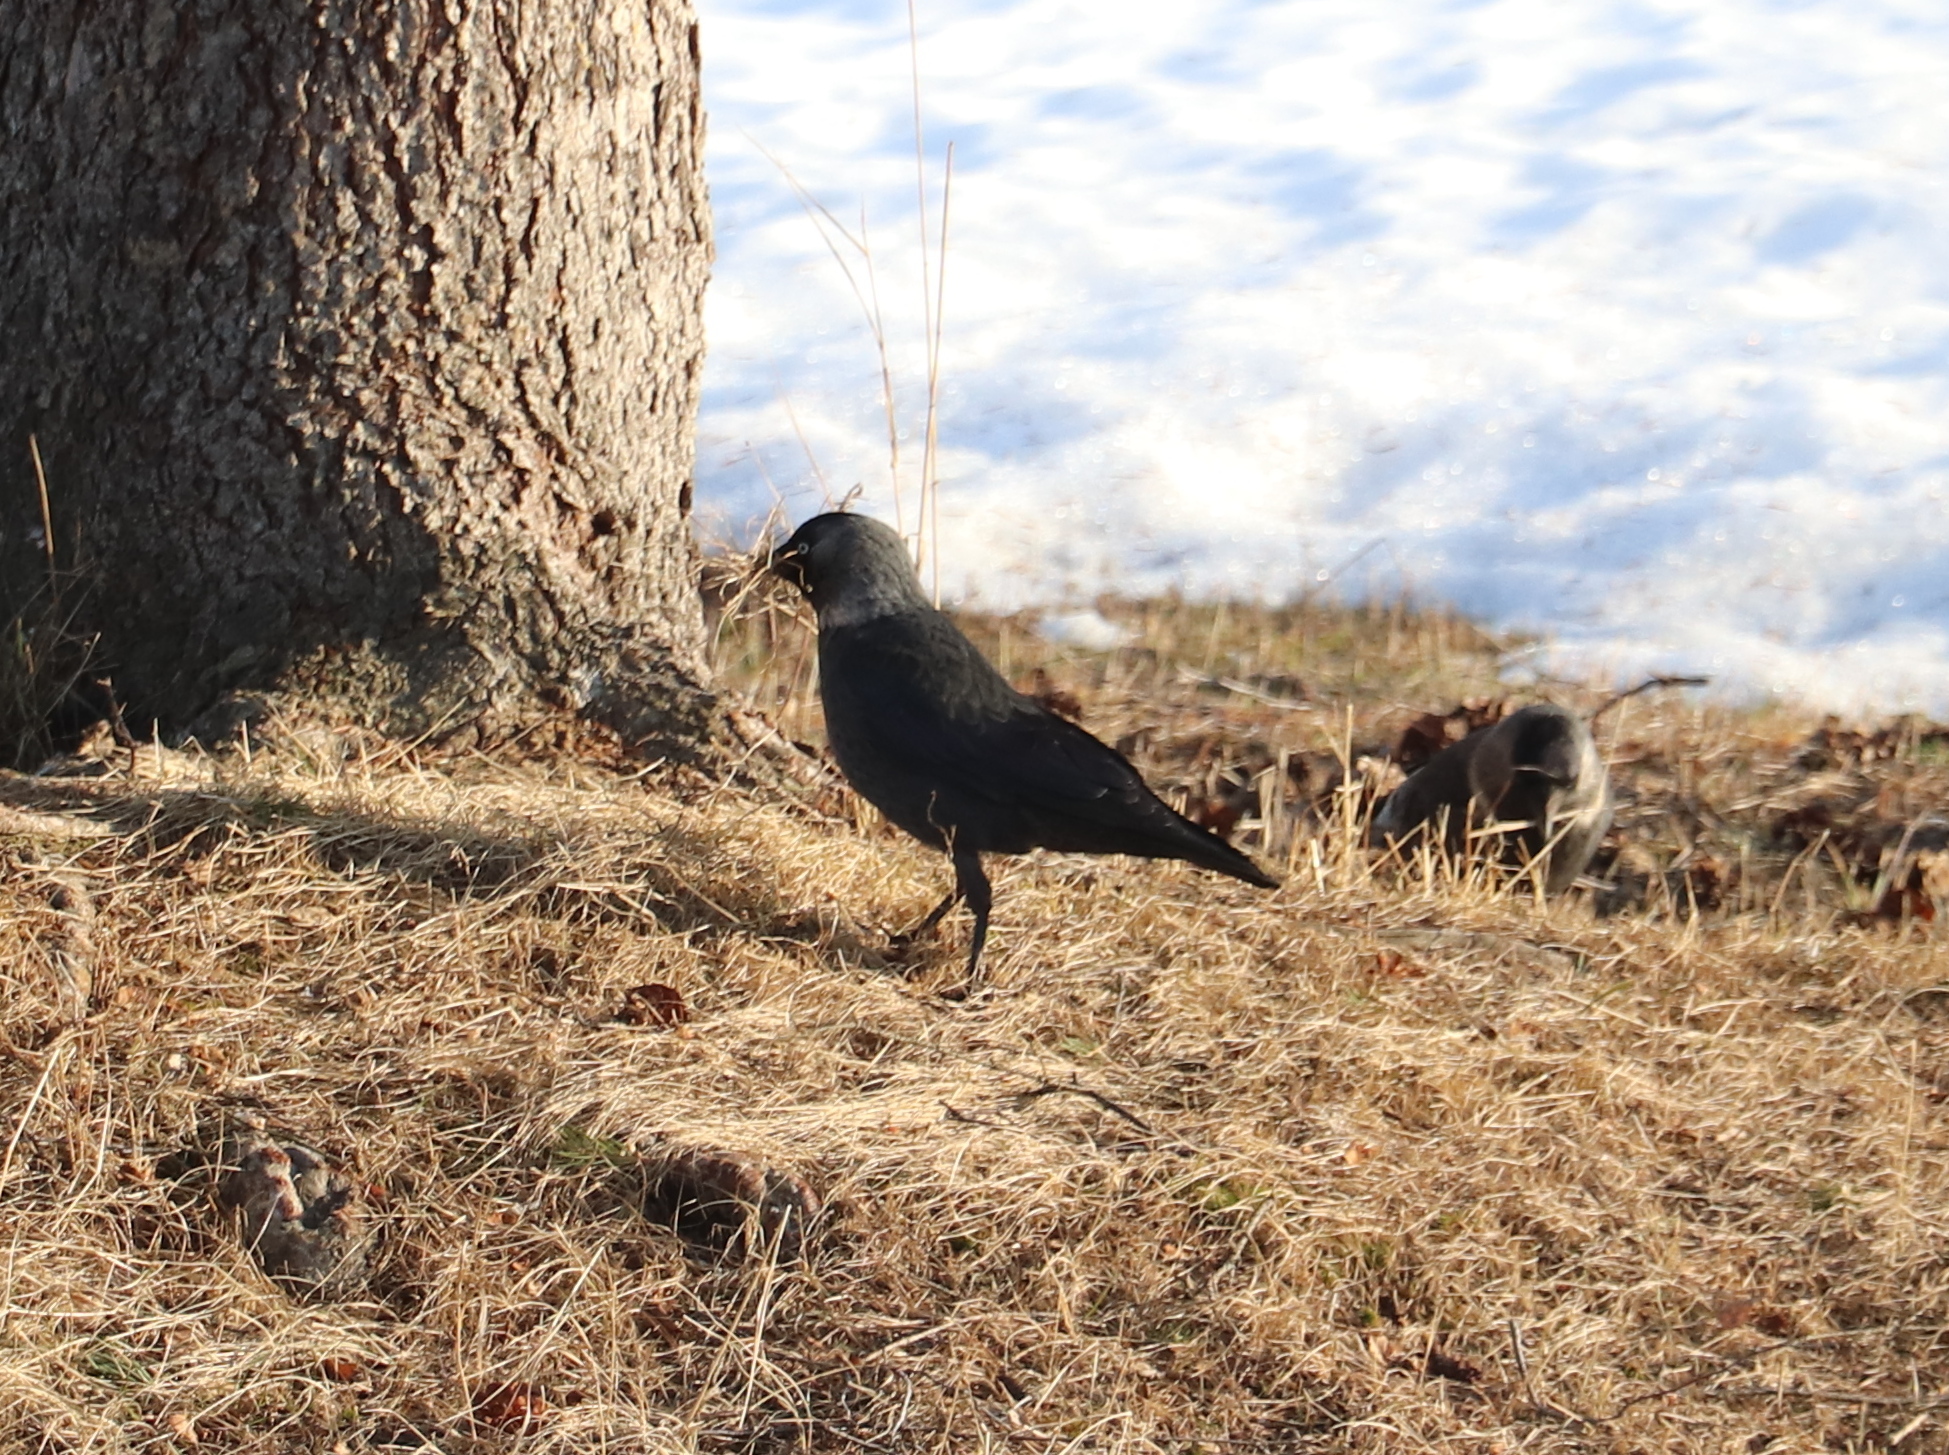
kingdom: Animalia
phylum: Chordata
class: Aves
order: Passeriformes
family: Corvidae
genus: Coloeus
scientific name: Coloeus monedula
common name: Western jackdaw
